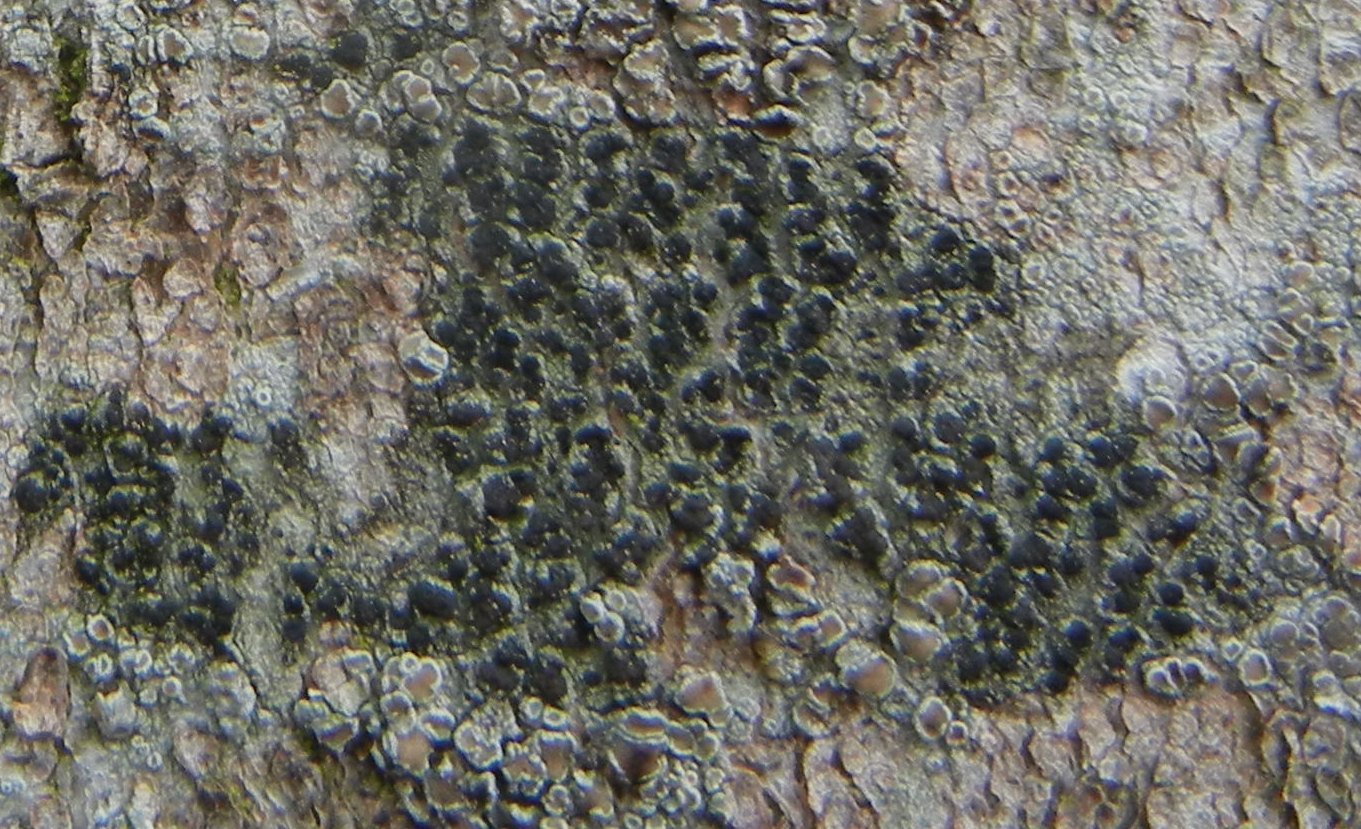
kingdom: Fungi
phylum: Ascomycota
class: Lecanoromycetes
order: Lecanorales
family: Lecanoraceae
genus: Lecidella
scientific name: Lecidella elaeochroma
